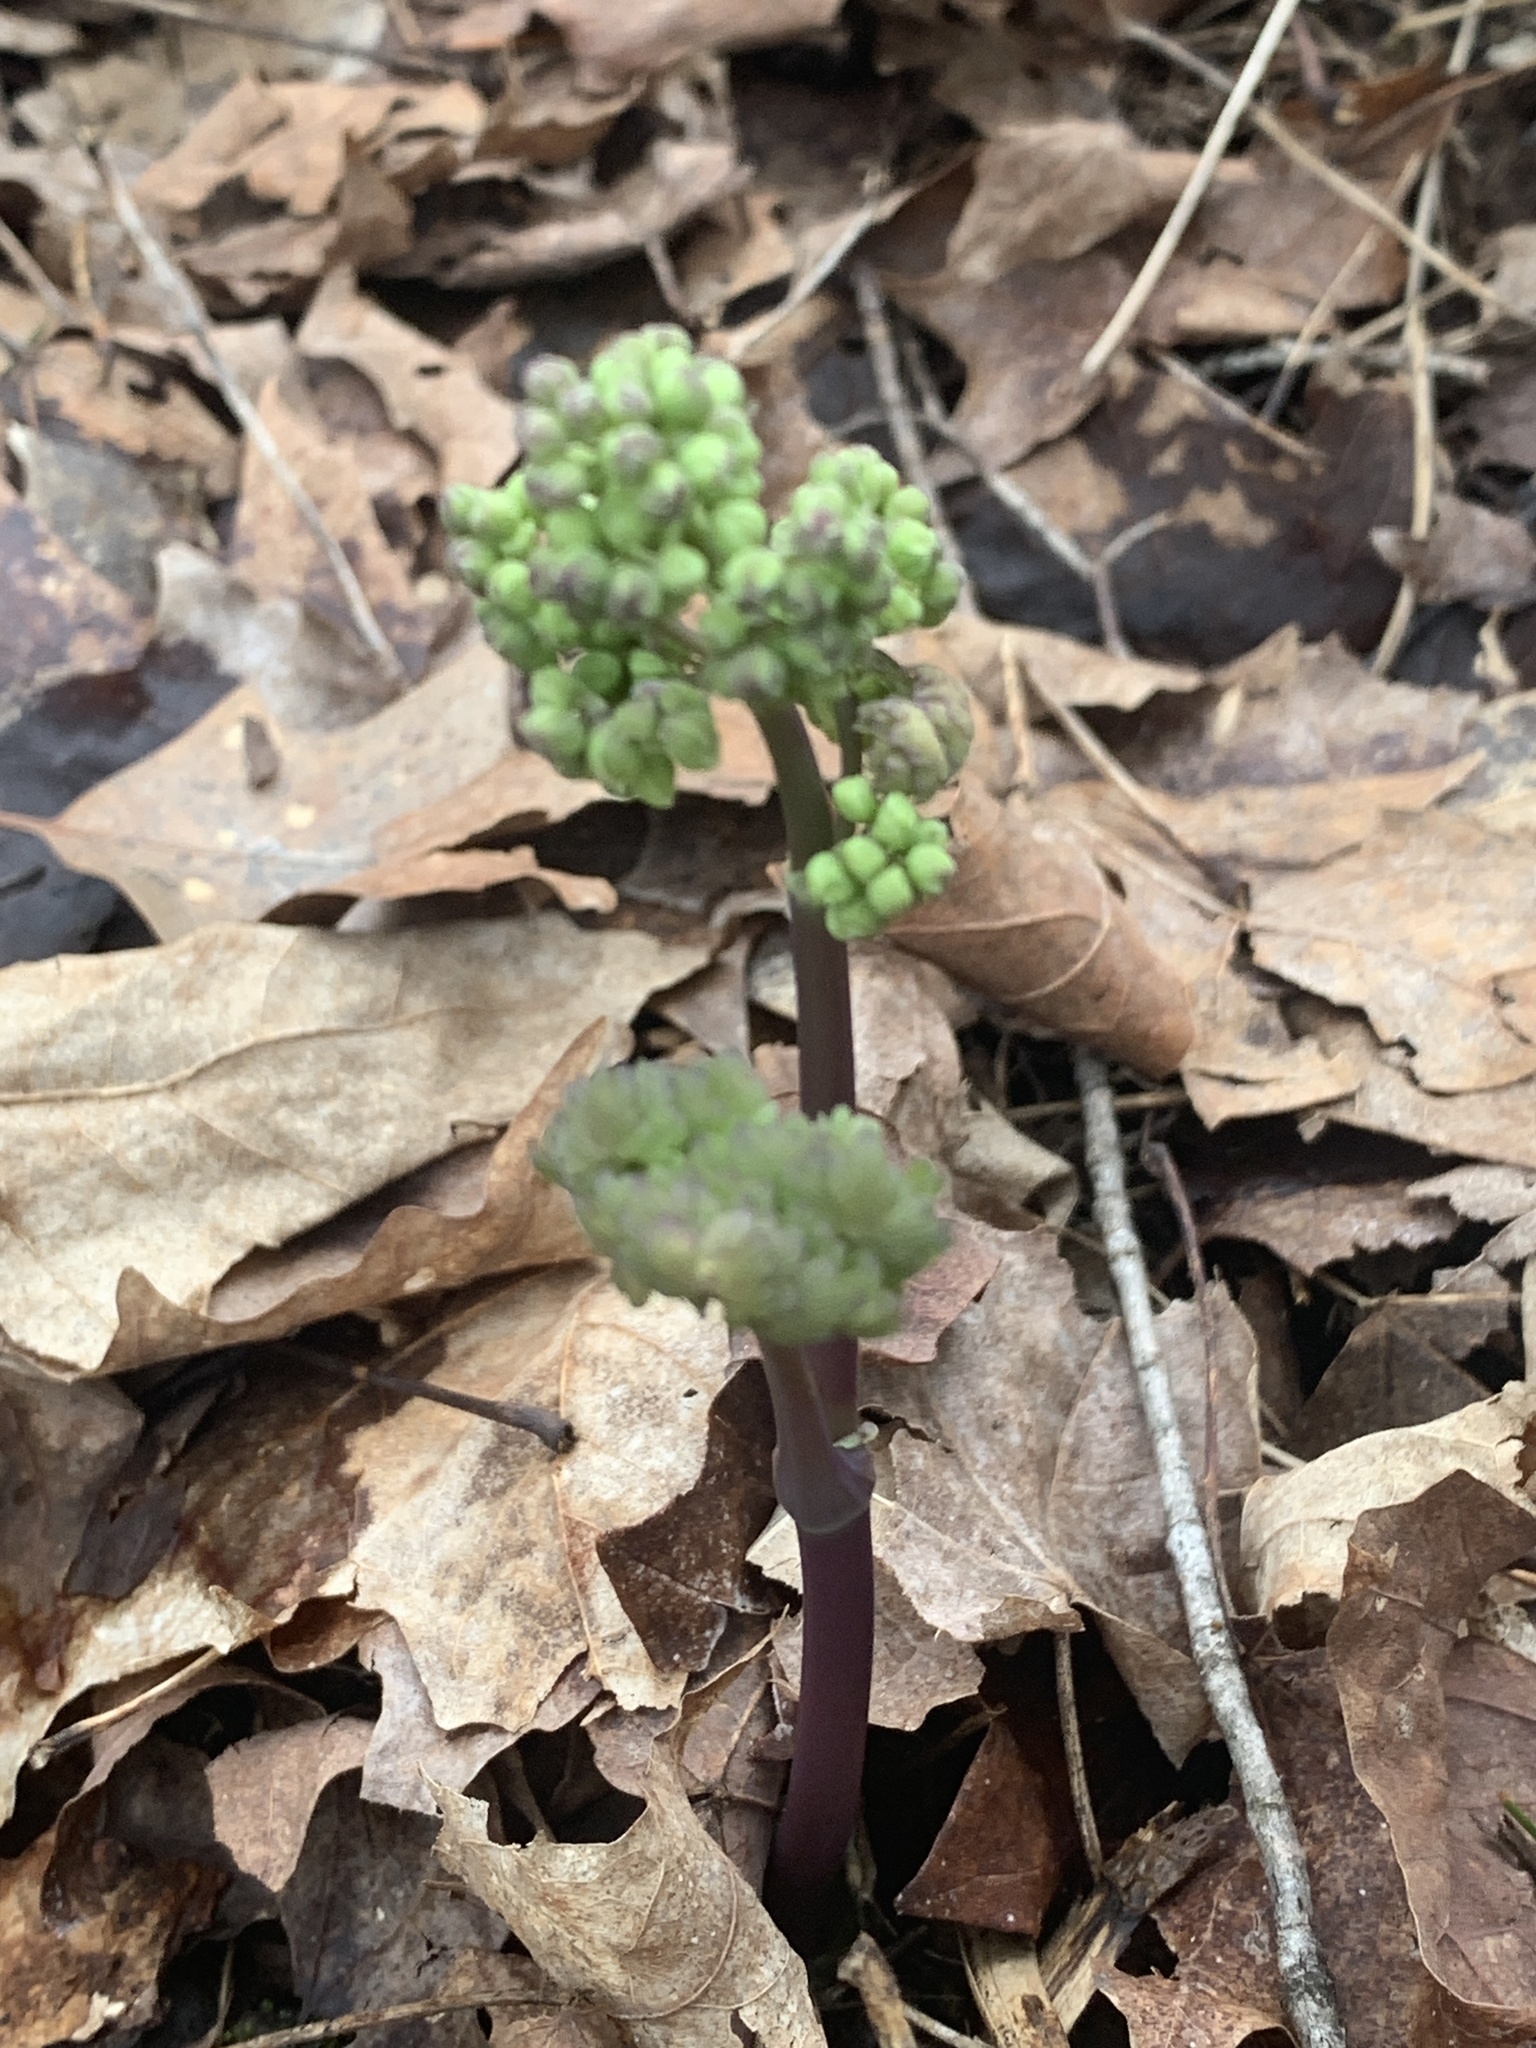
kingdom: Plantae
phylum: Tracheophyta
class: Magnoliopsida
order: Ranunculales
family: Ranunculaceae
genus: Thalictrum
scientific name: Thalictrum dioicum
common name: Early meadow-rue
